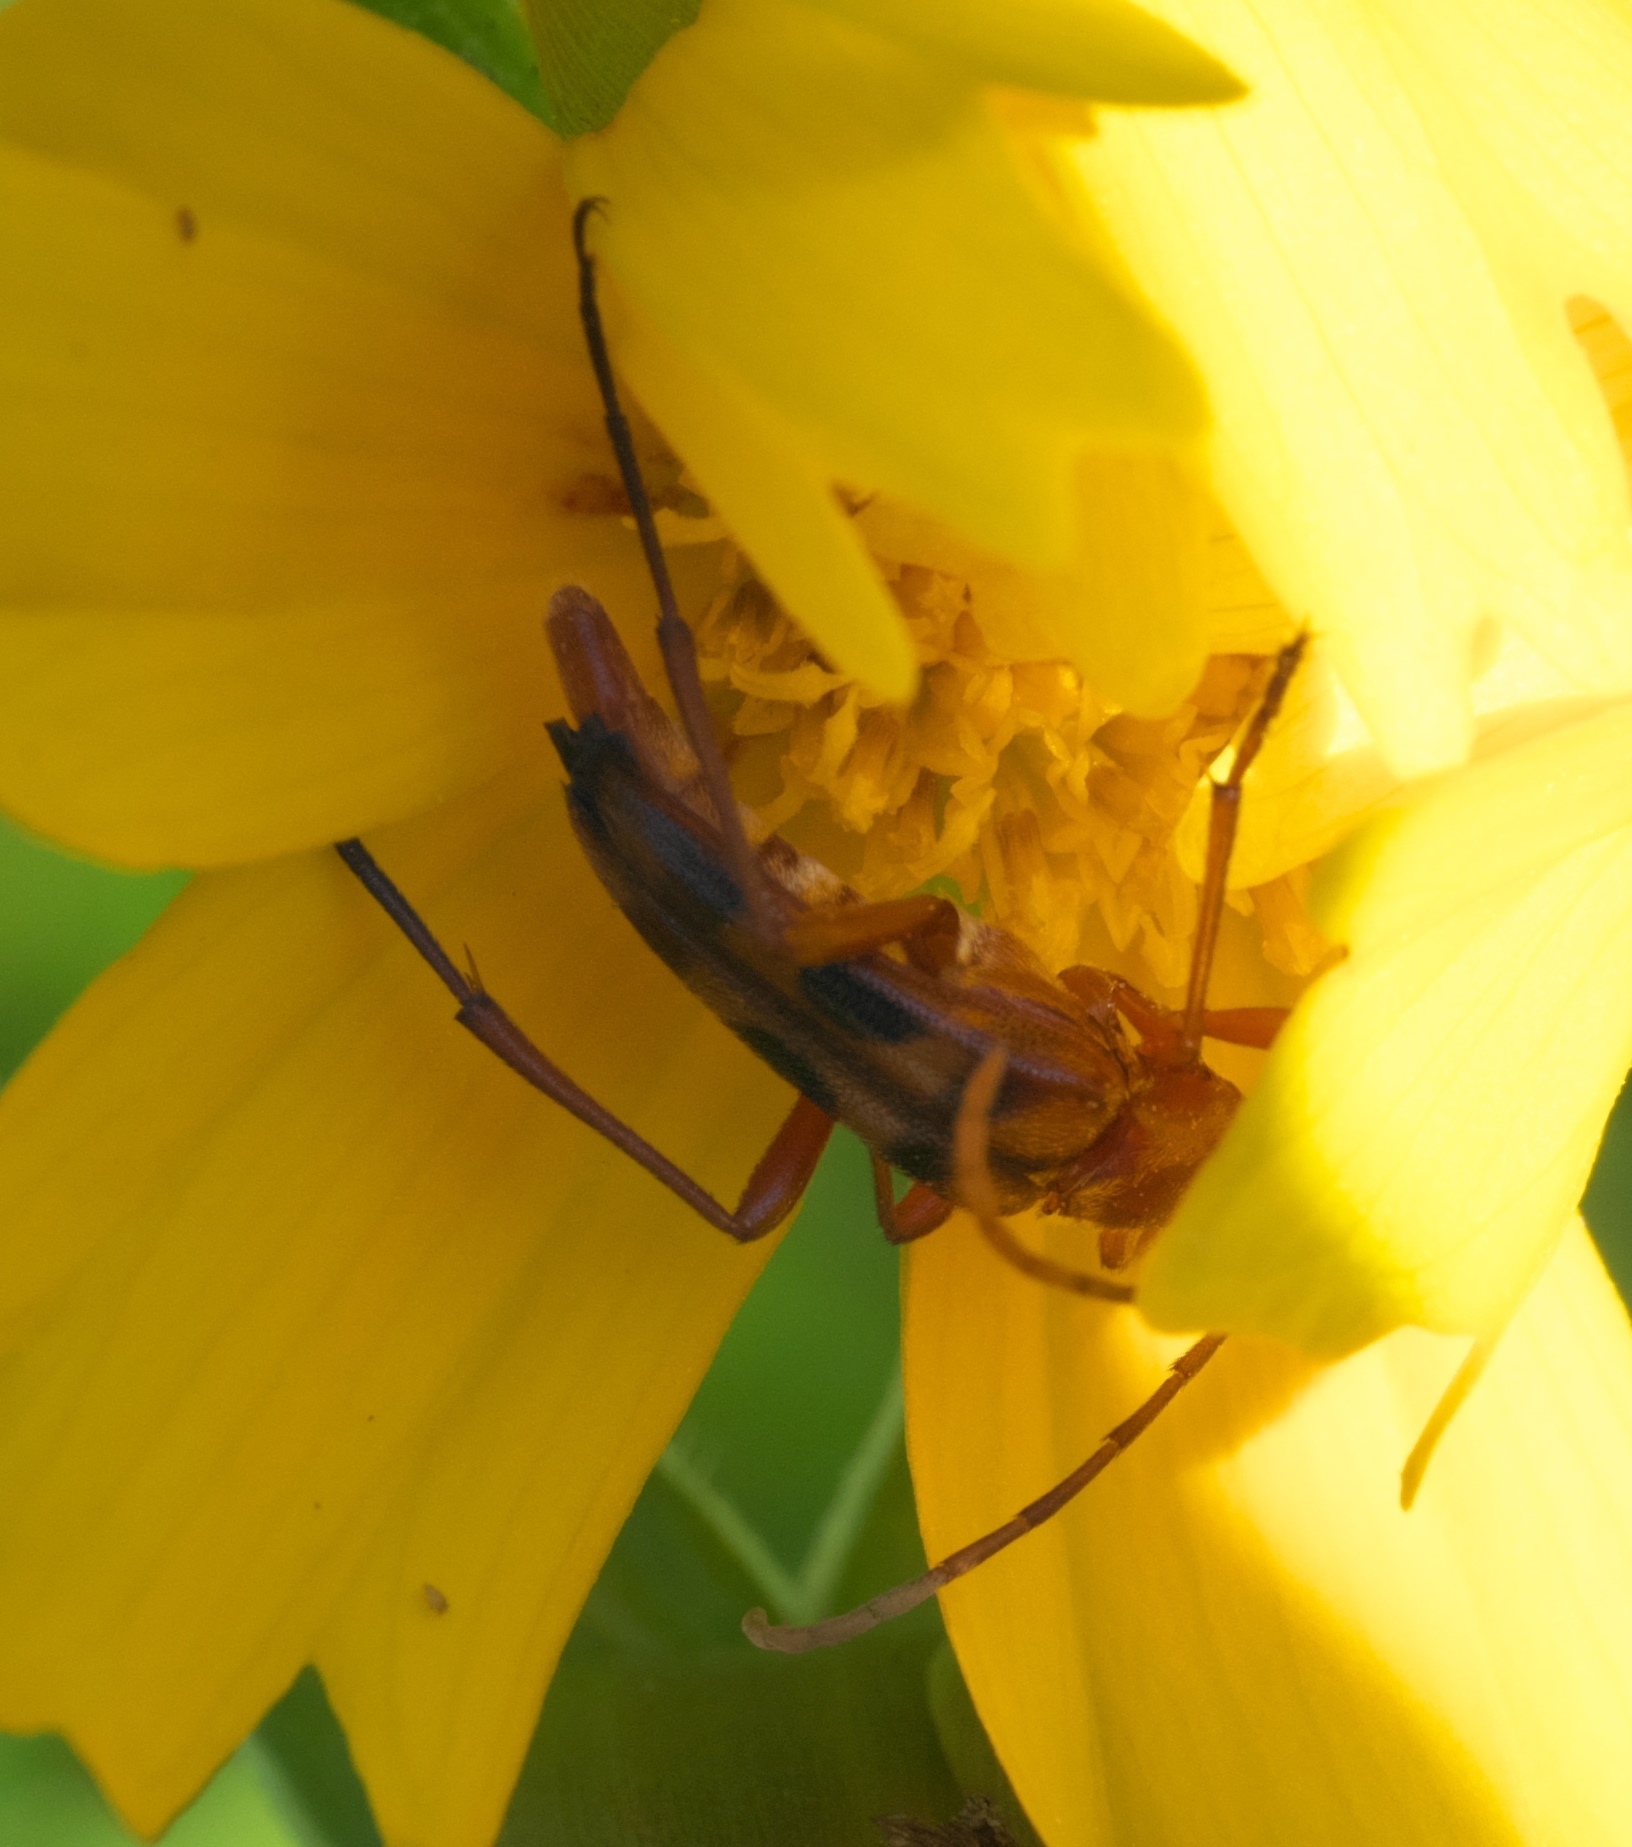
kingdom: Animalia
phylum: Arthropoda
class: Insecta
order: Coleoptera
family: Cerambycidae
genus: Strangalia
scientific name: Strangalia sexnotata
